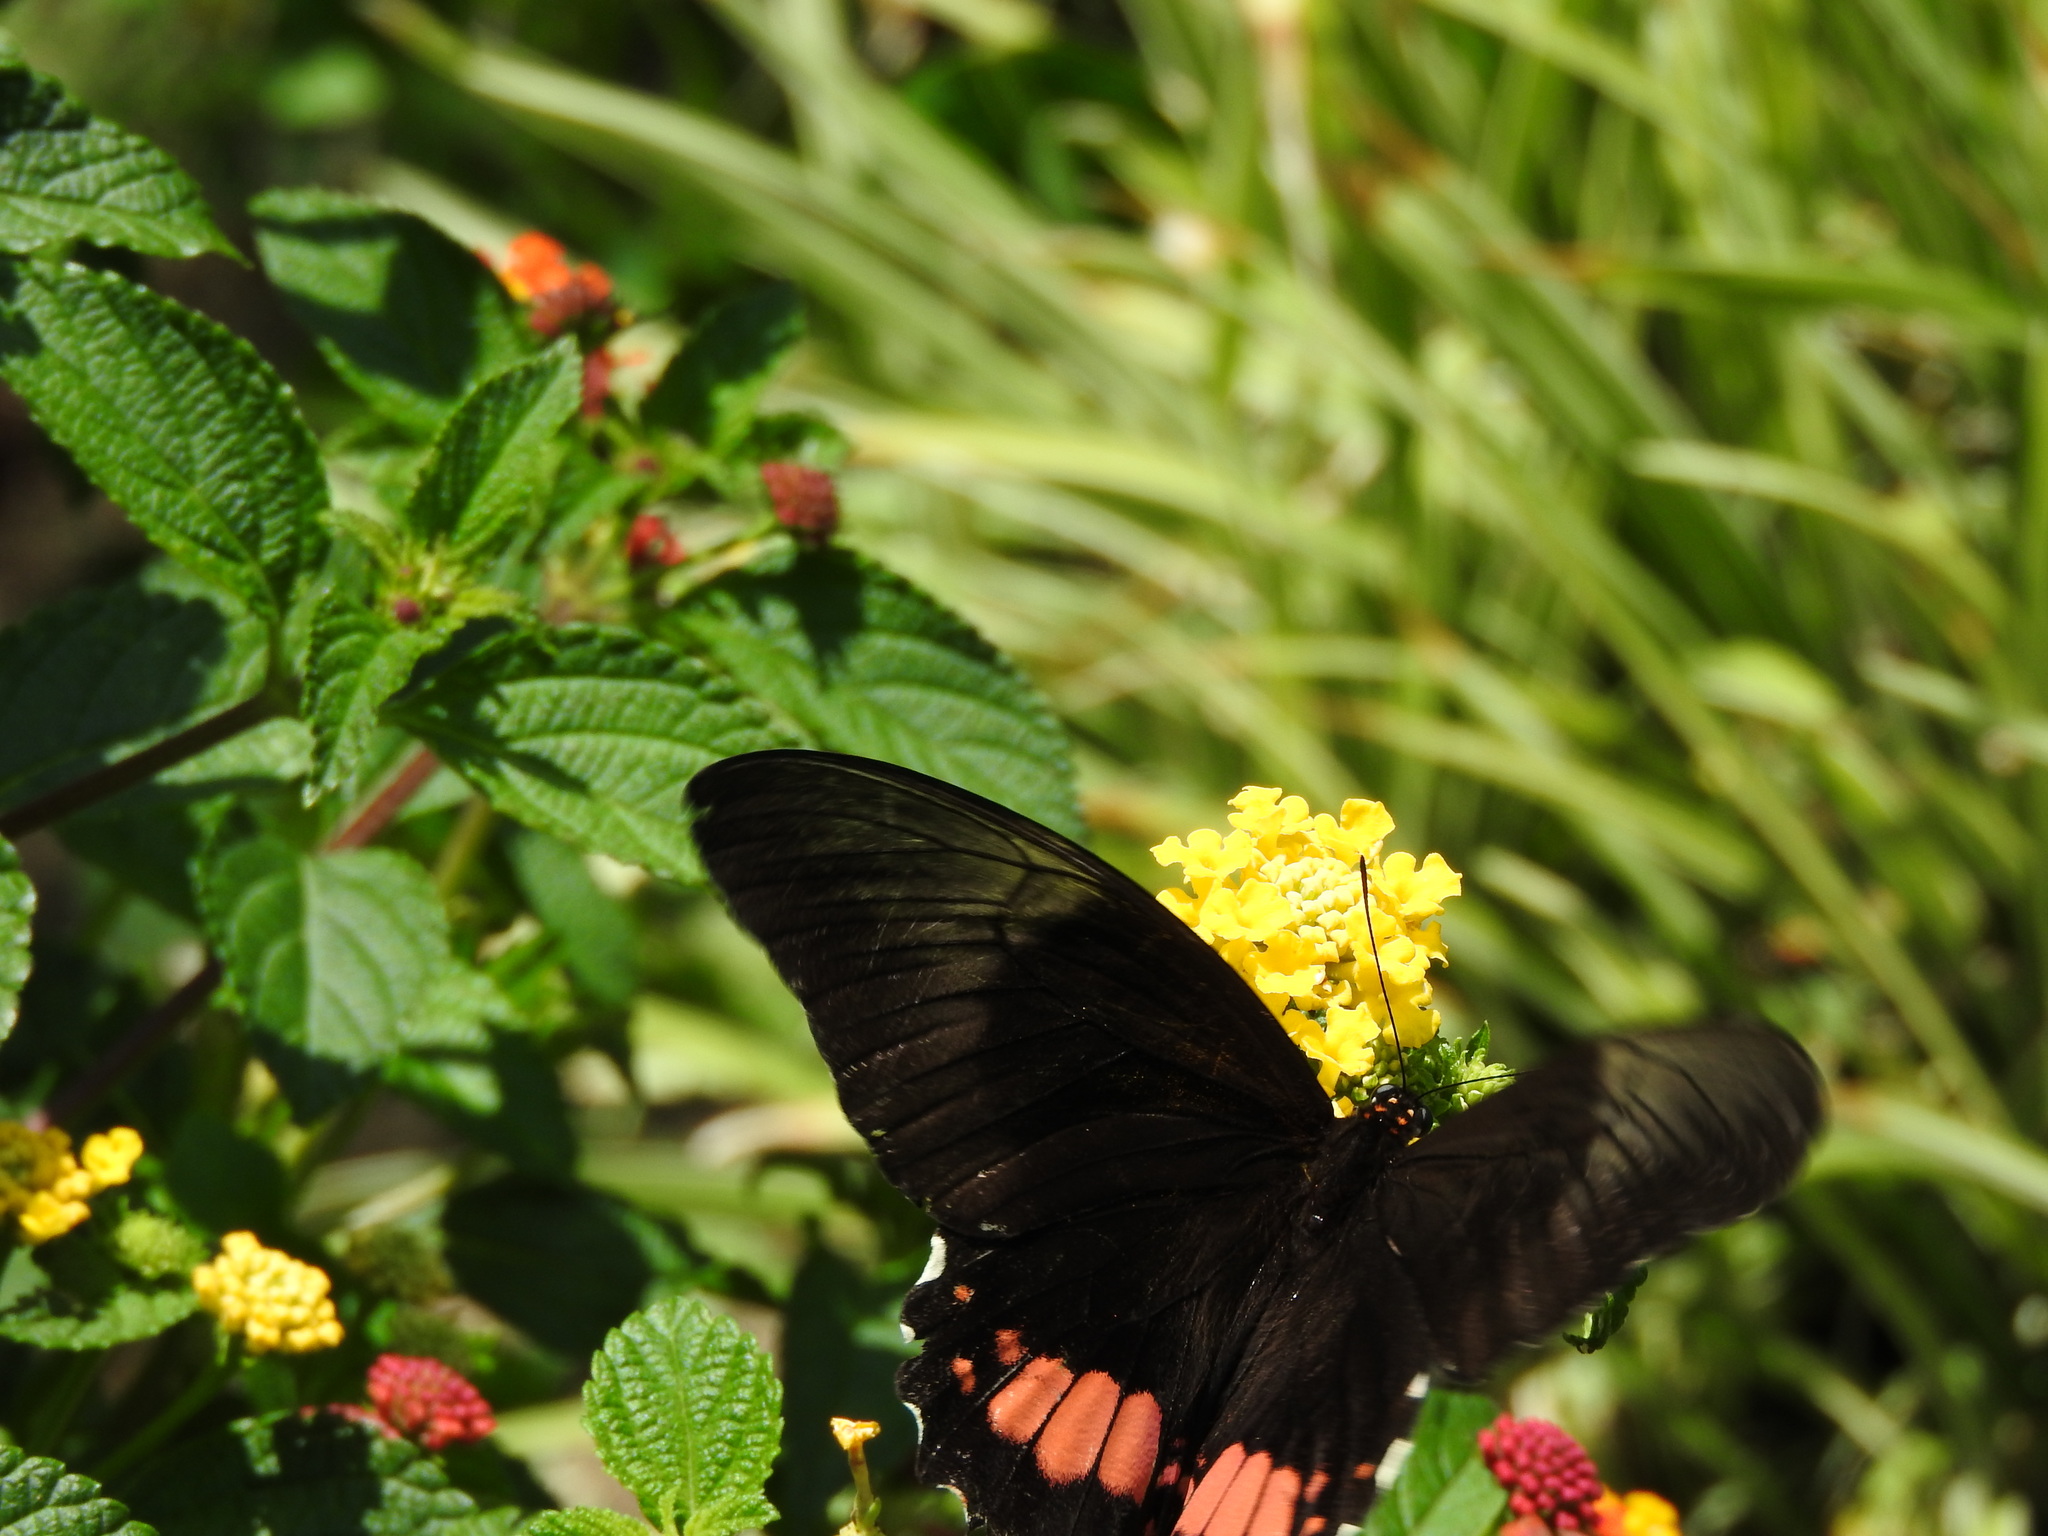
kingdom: Animalia
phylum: Arthropoda
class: Insecta
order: Lepidoptera
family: Papilionidae
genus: Papilio
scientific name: Papilio anchisiades
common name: Idaes swallowtail
